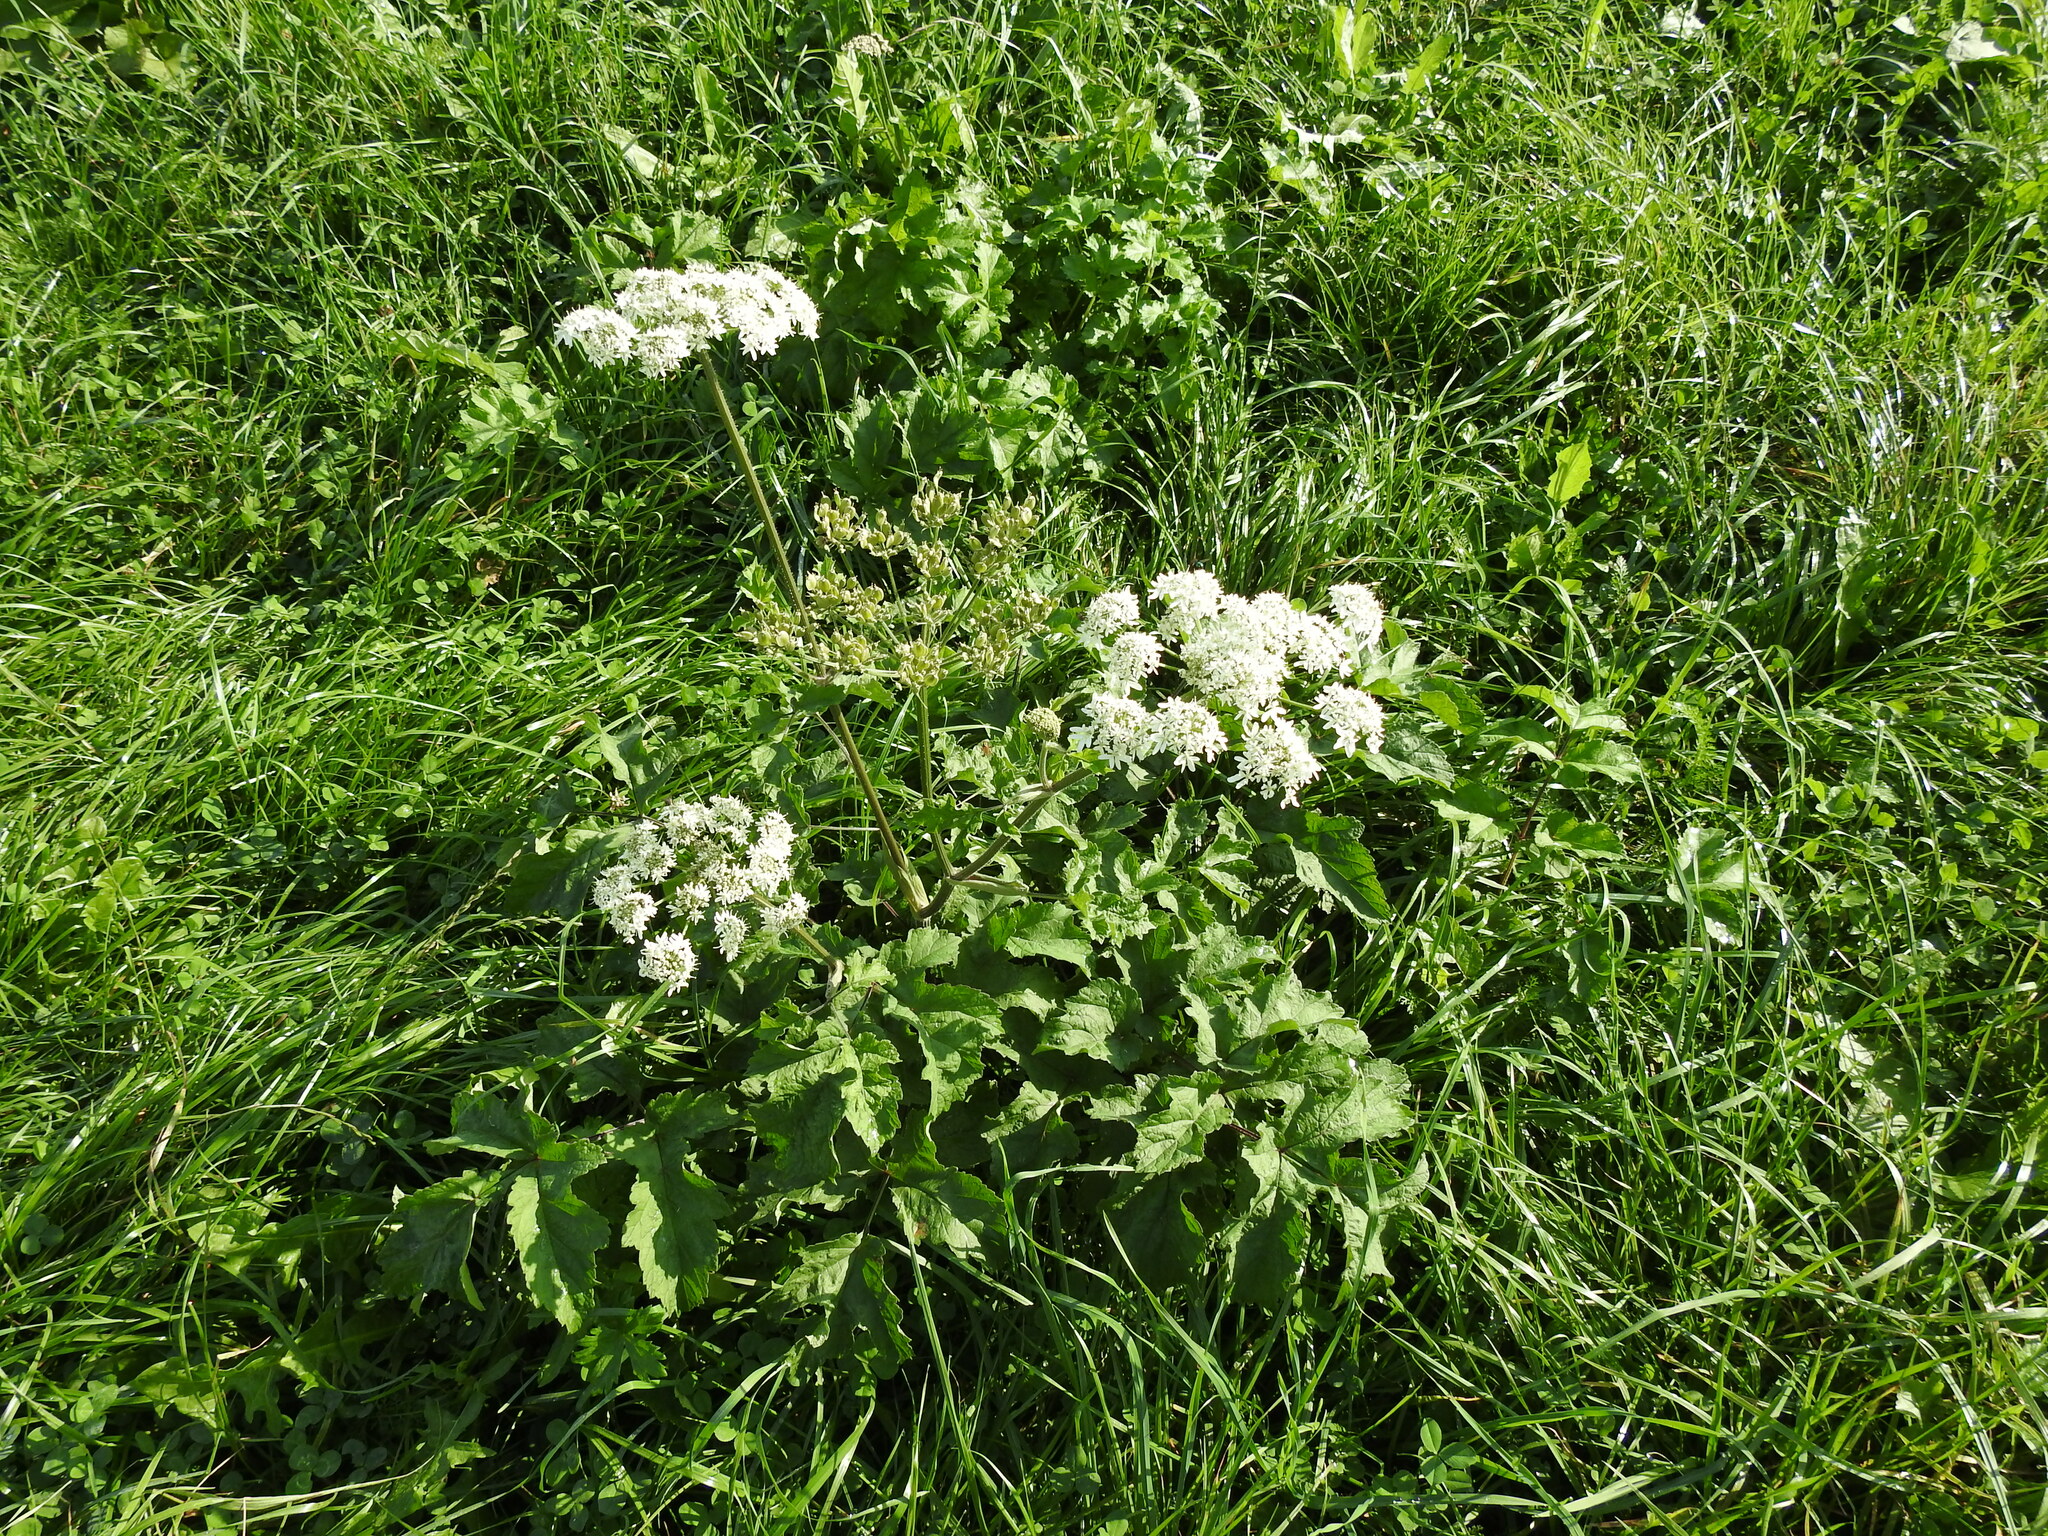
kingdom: Plantae
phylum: Tracheophyta
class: Magnoliopsida
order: Apiales
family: Apiaceae
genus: Heracleum
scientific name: Heracleum sphondylium
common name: Hogweed
